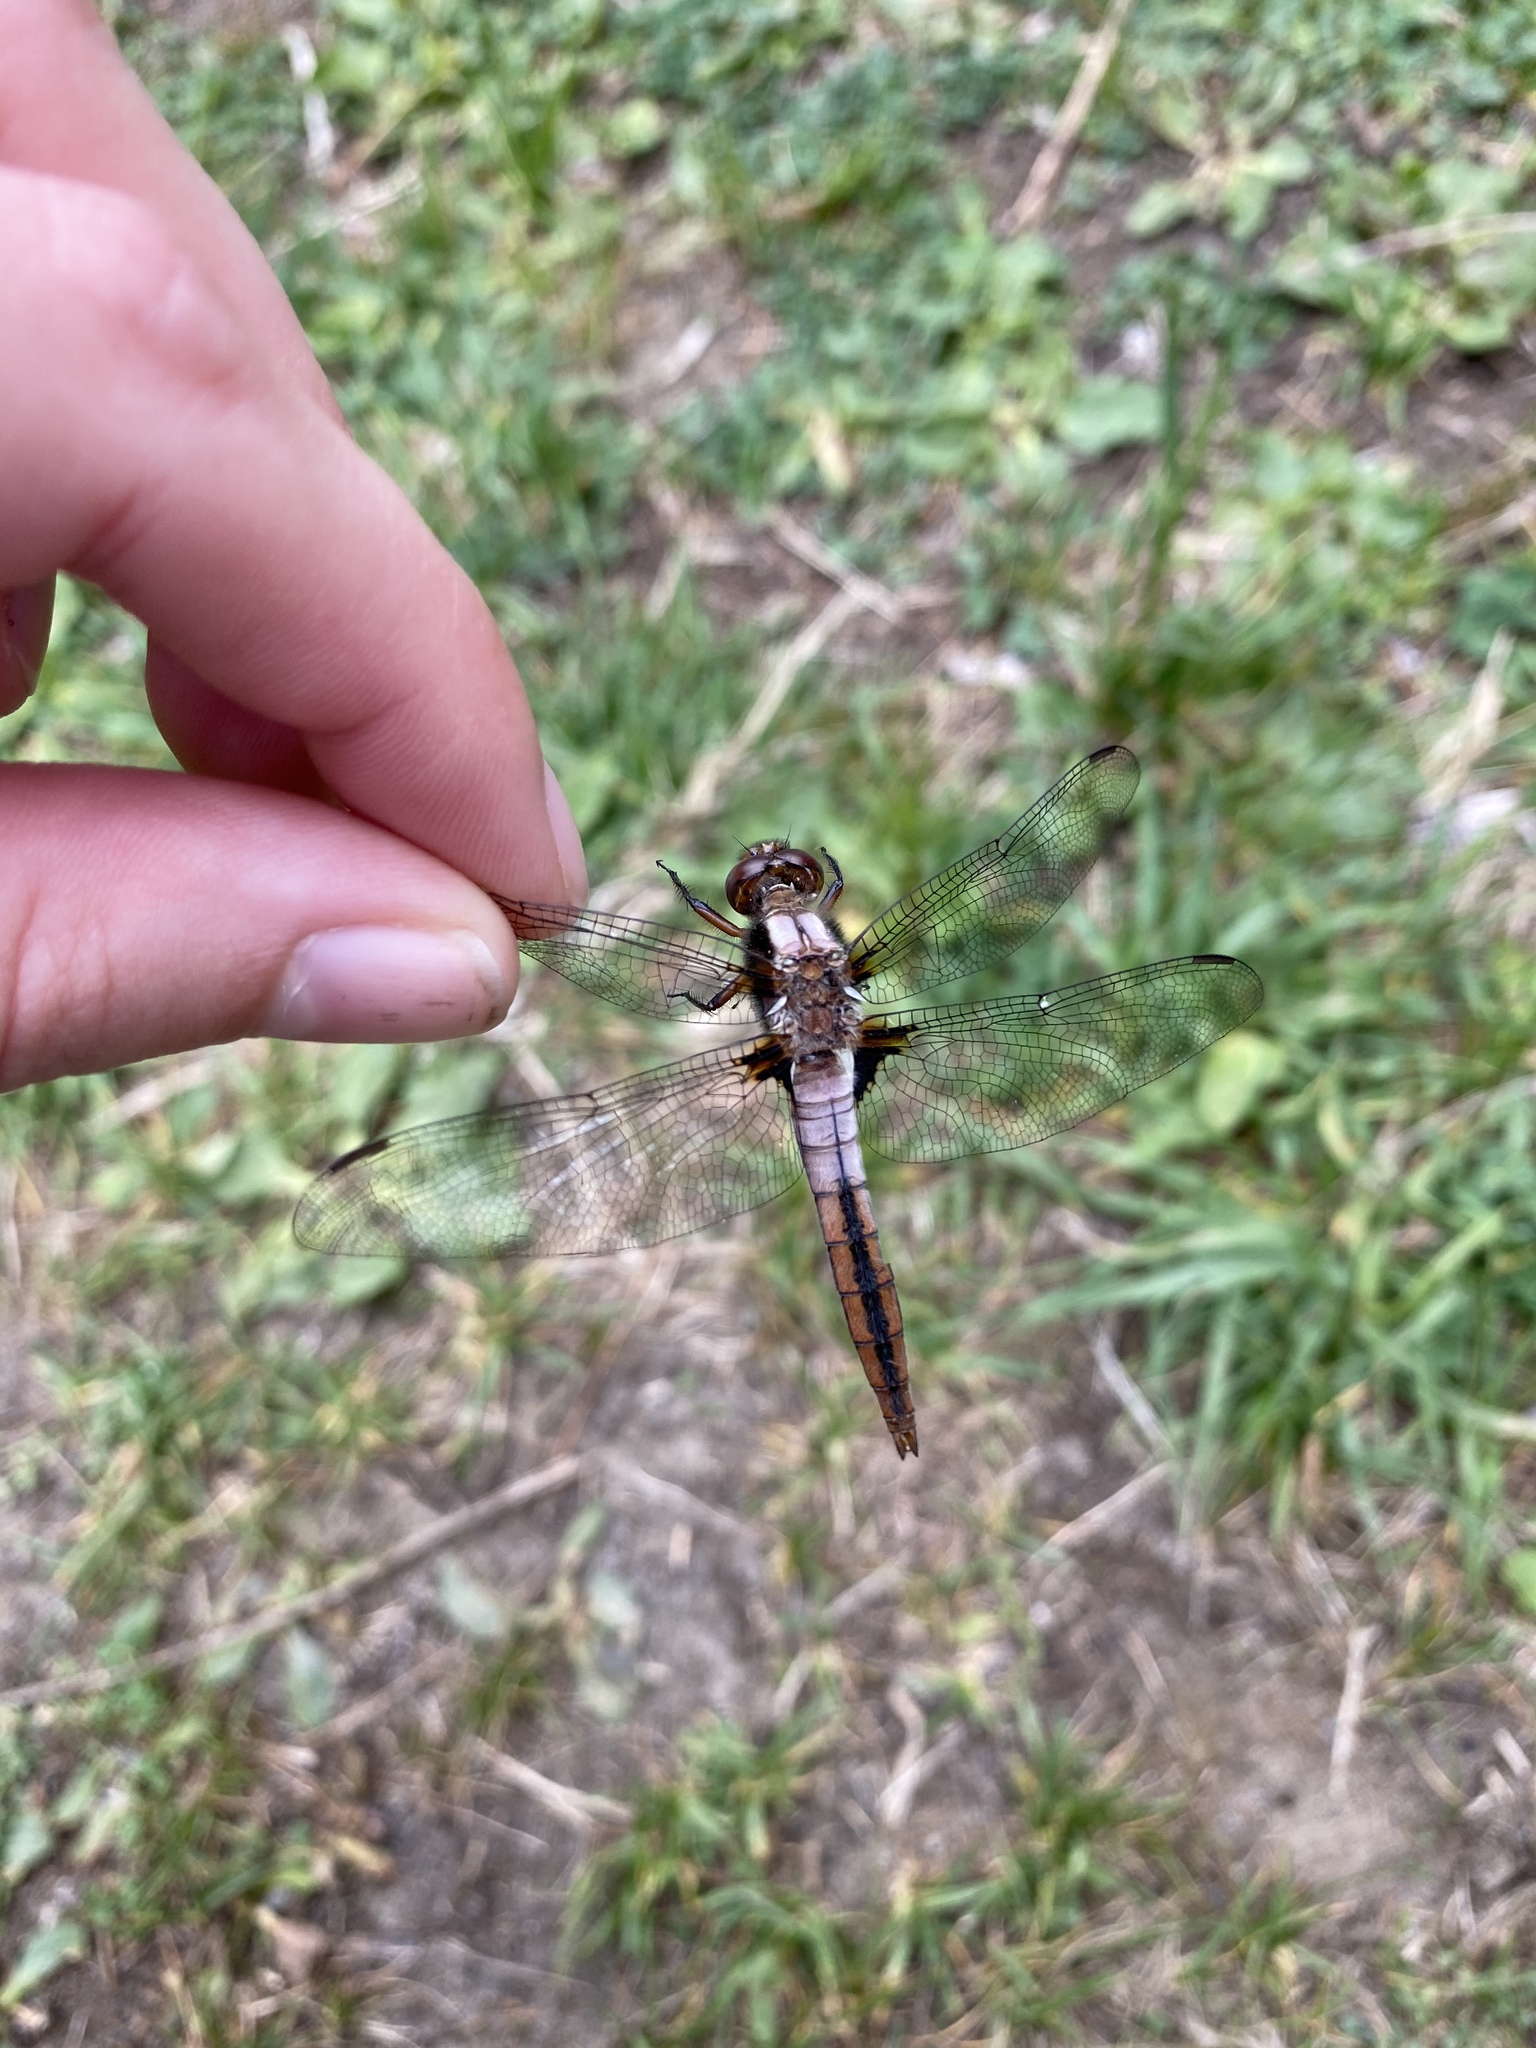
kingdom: Animalia
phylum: Arthropoda
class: Insecta
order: Odonata
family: Libellulidae
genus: Ladona
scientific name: Ladona julia
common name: Chalk-fronted corporal
